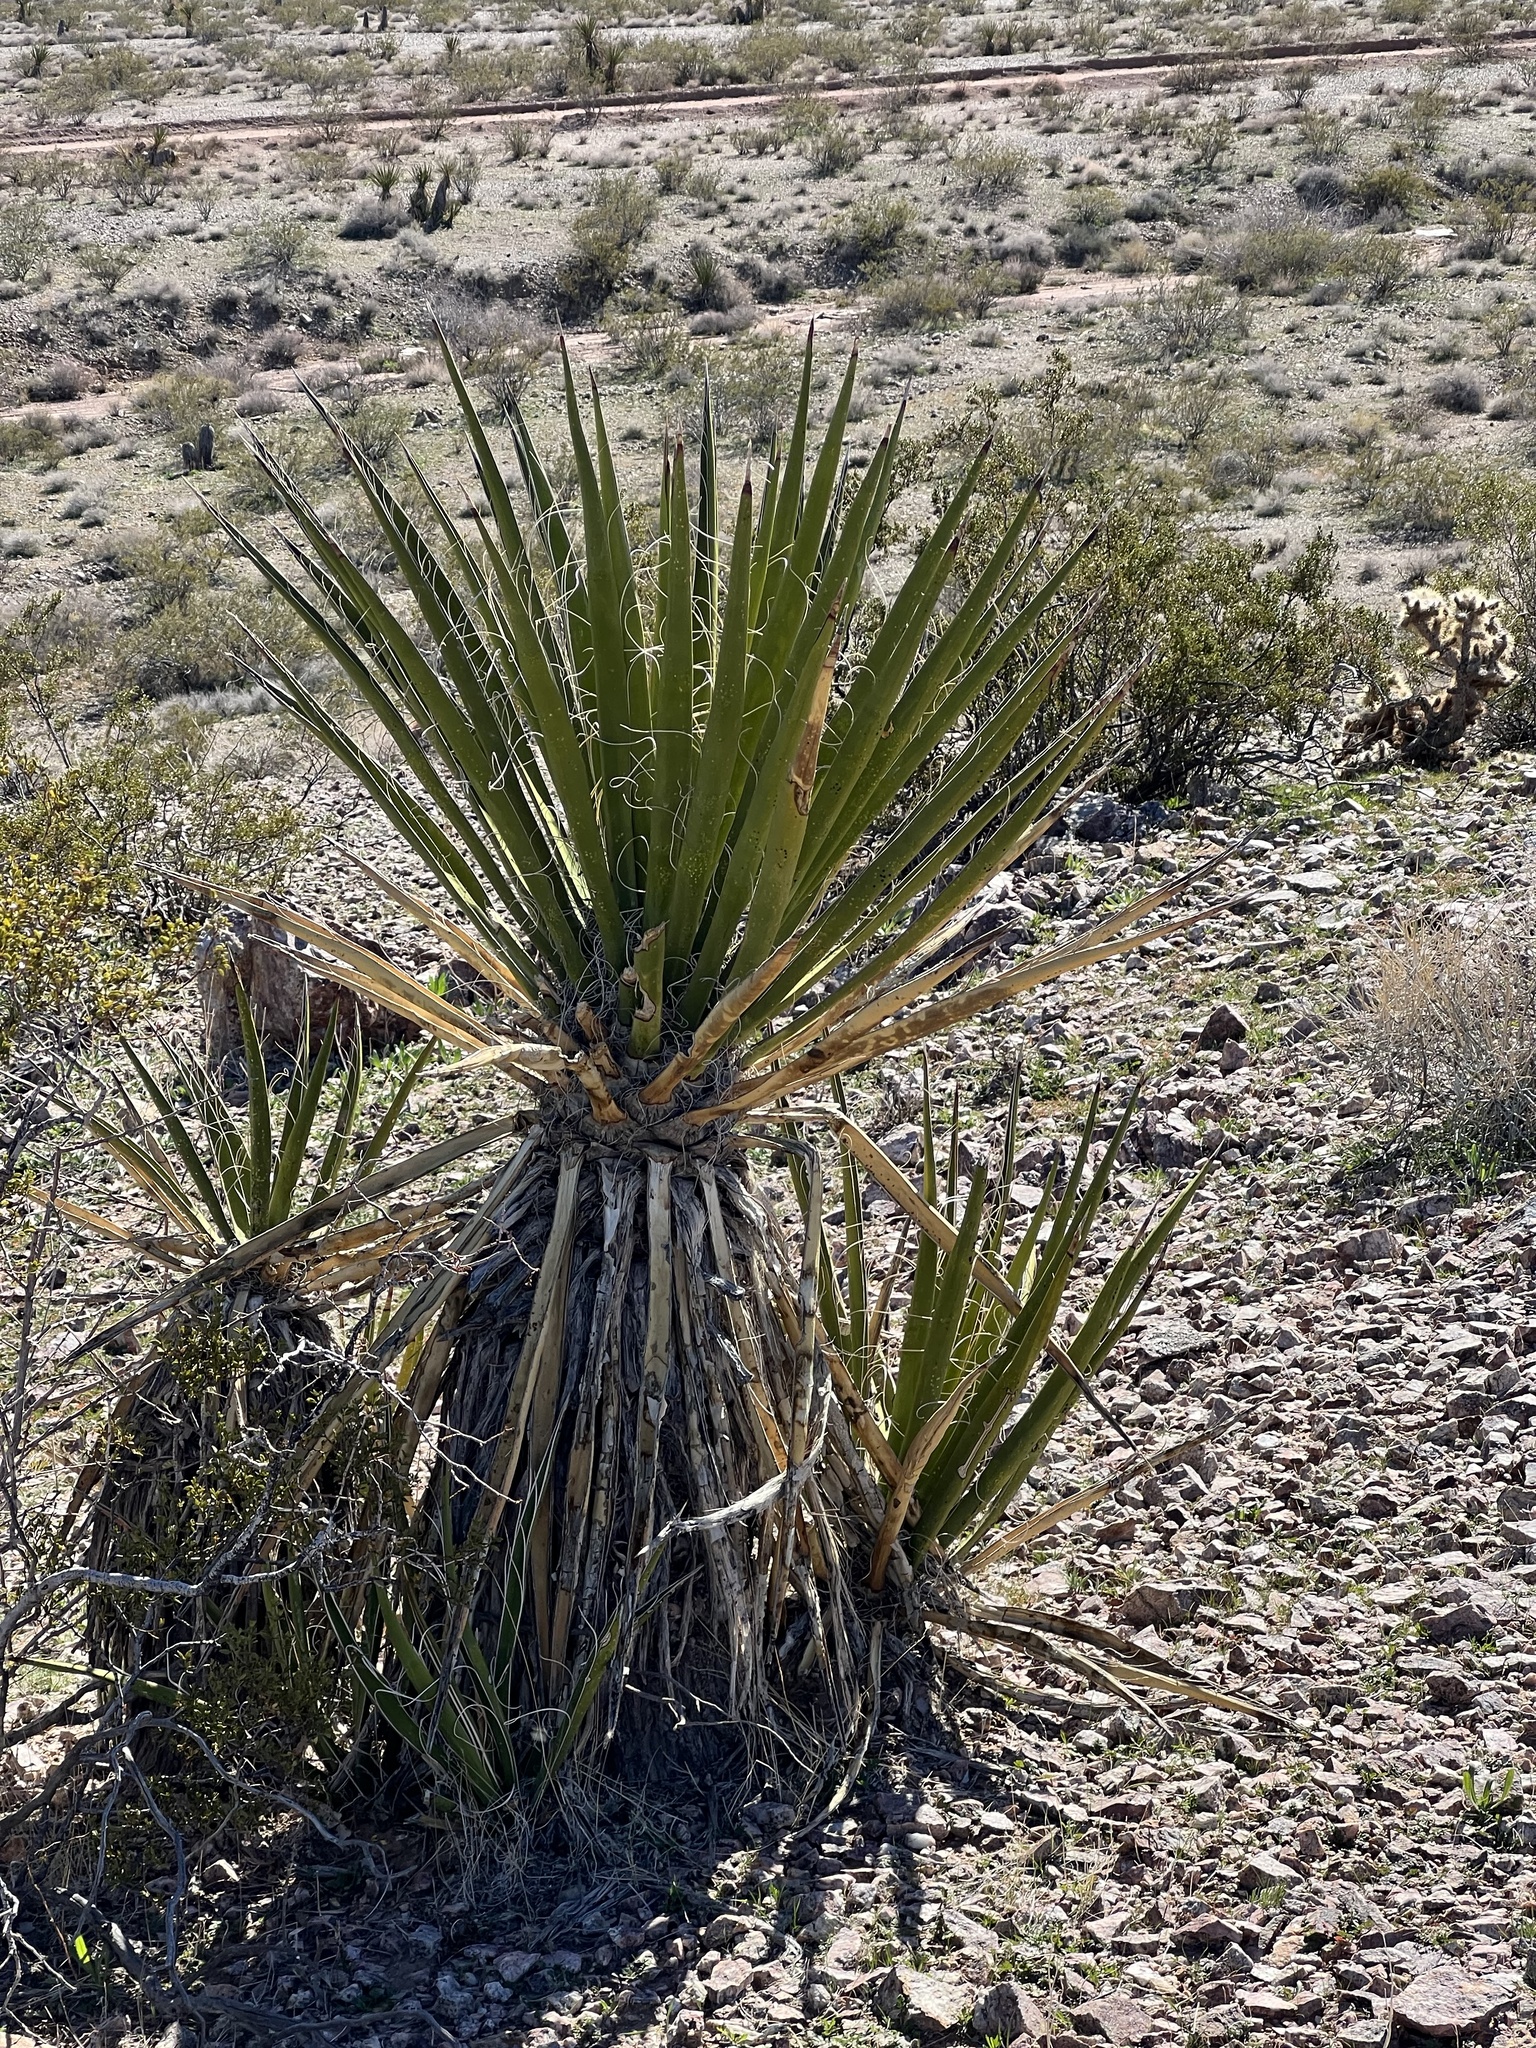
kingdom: Plantae
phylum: Tracheophyta
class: Liliopsida
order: Asparagales
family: Asparagaceae
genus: Yucca
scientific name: Yucca schidigera
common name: Mojave yucca
